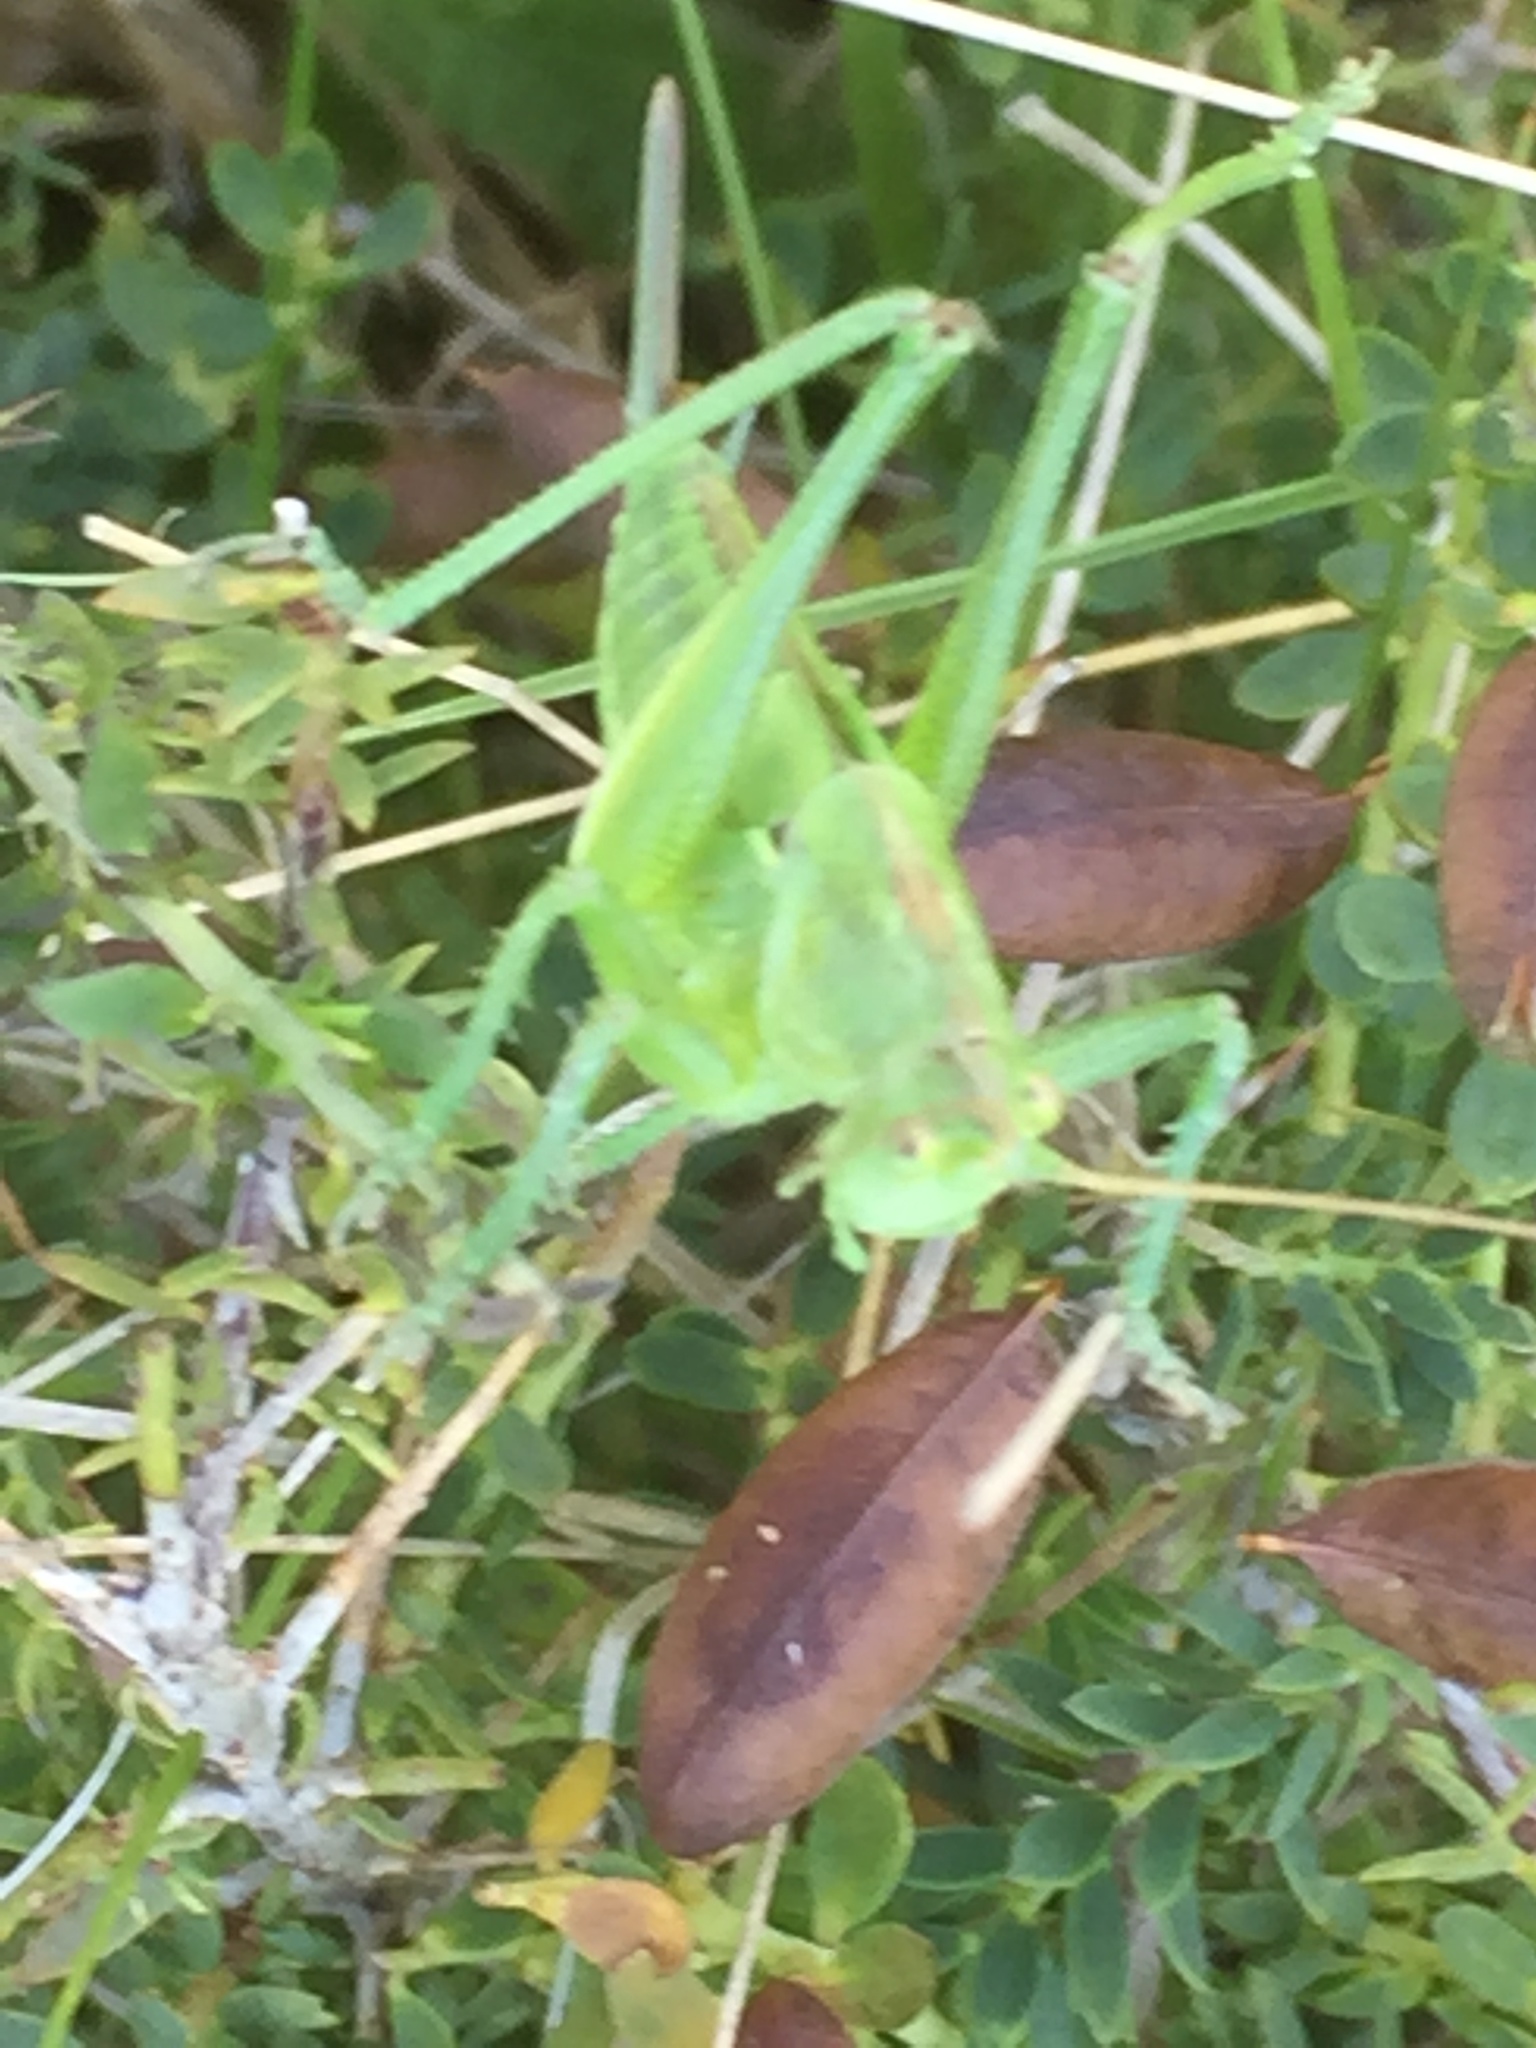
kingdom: Animalia
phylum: Arthropoda
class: Insecta
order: Orthoptera
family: Tettigoniidae
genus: Tettigonia
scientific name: Tettigonia viridissima
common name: Great green bush-cricket
